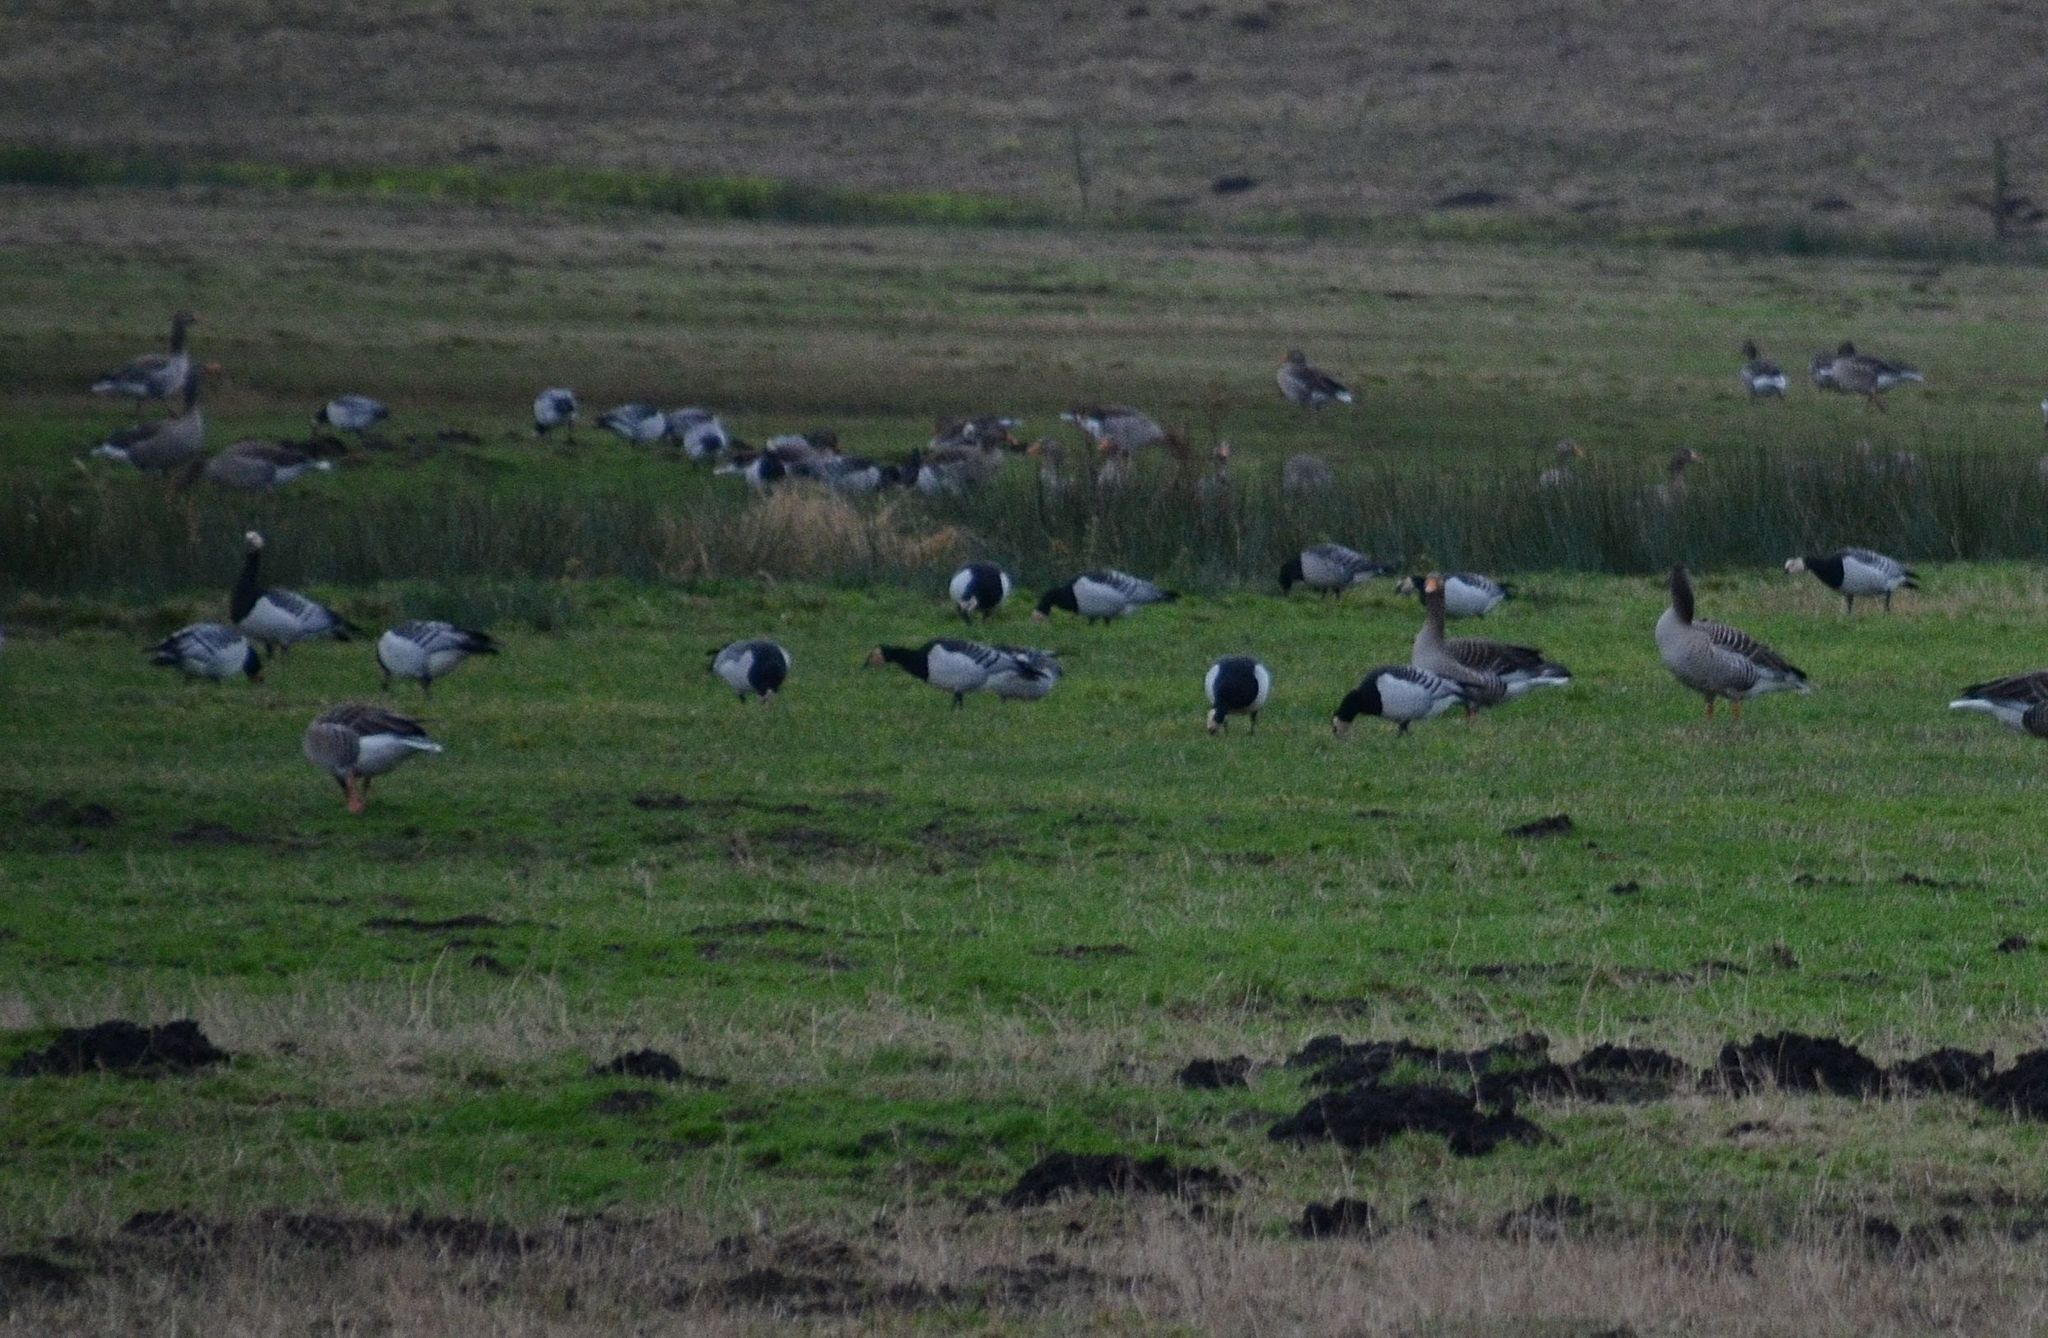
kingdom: Animalia
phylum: Chordata
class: Aves
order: Anseriformes
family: Anatidae
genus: Branta
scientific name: Branta leucopsis
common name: Barnacle goose
